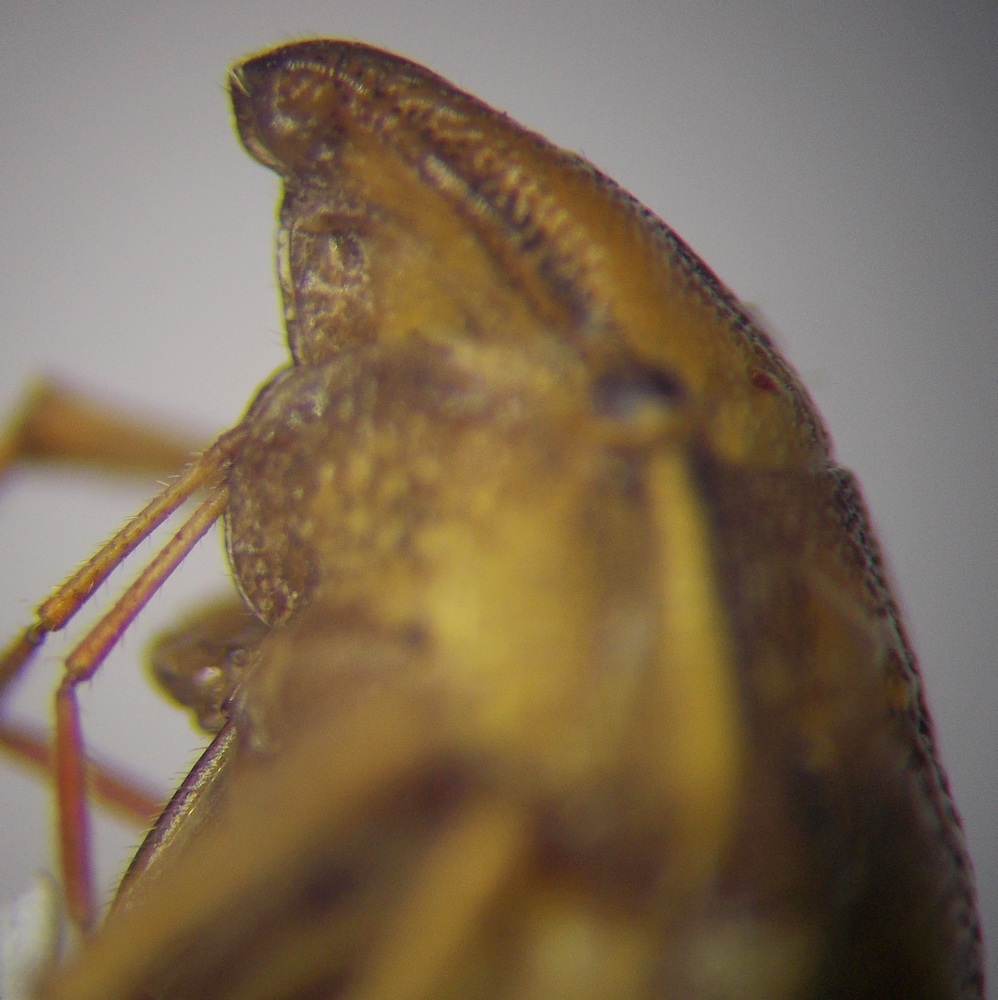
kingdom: Animalia
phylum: Arthropoda
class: Insecta
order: Hemiptera
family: Pentatomidae
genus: Aelia
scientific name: Aelia acuminata
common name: Bishop's mitre
